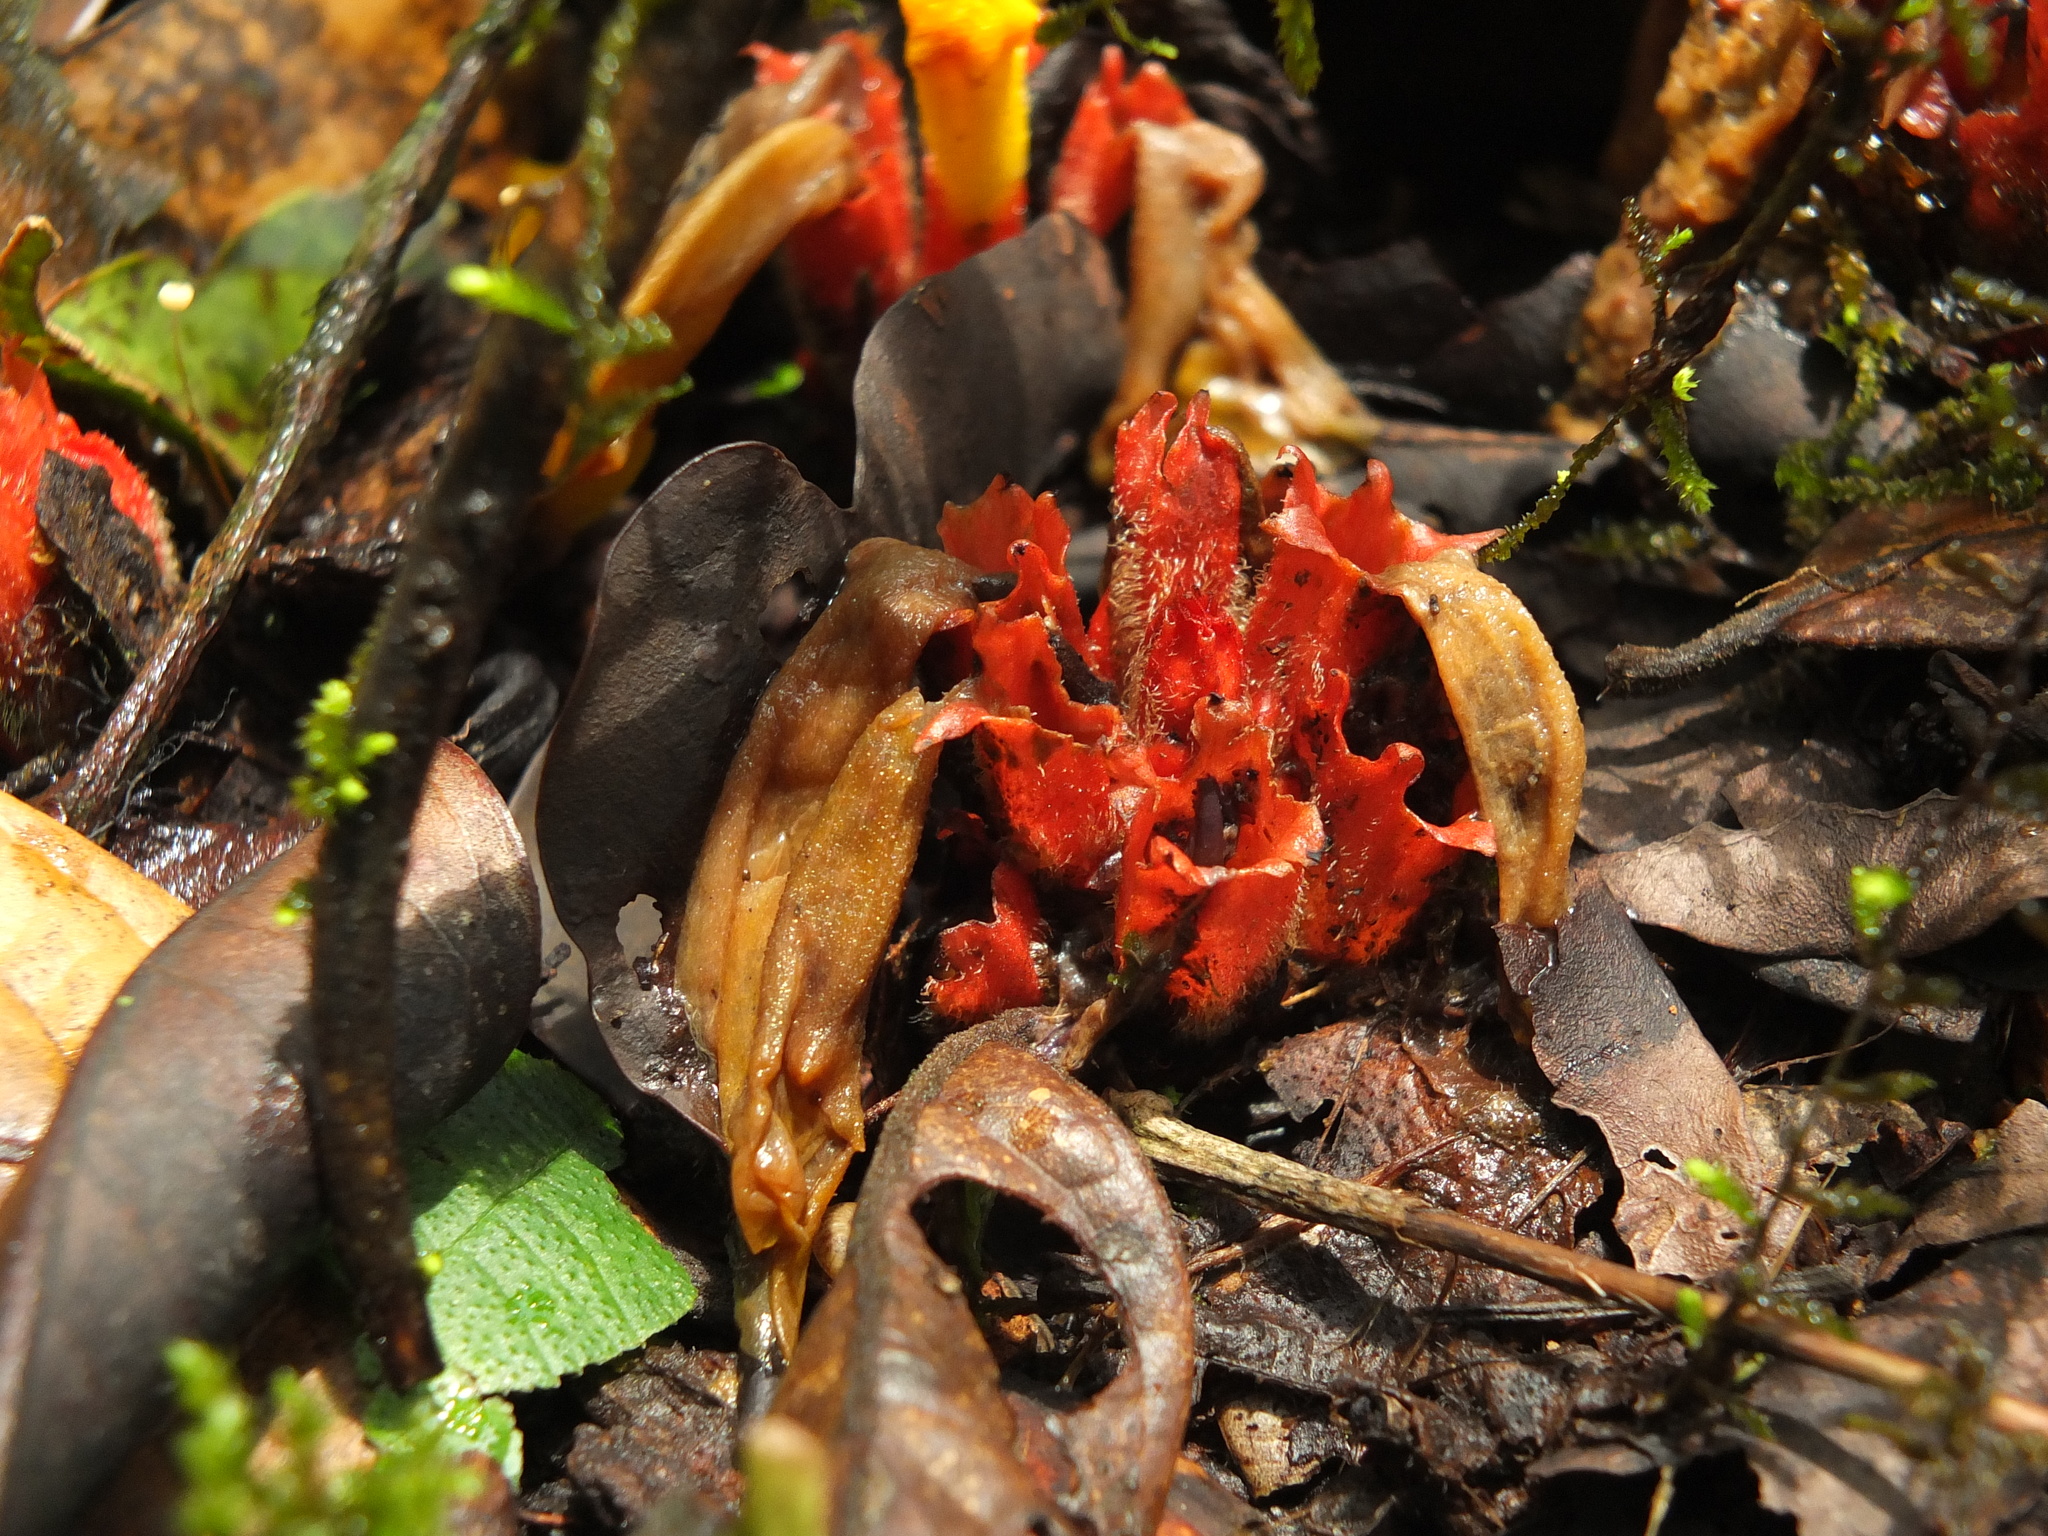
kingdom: Plantae
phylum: Tracheophyta
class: Magnoliopsida
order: Lamiales
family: Orobanchaceae
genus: Christisonia
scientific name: Christisonia bicolor
